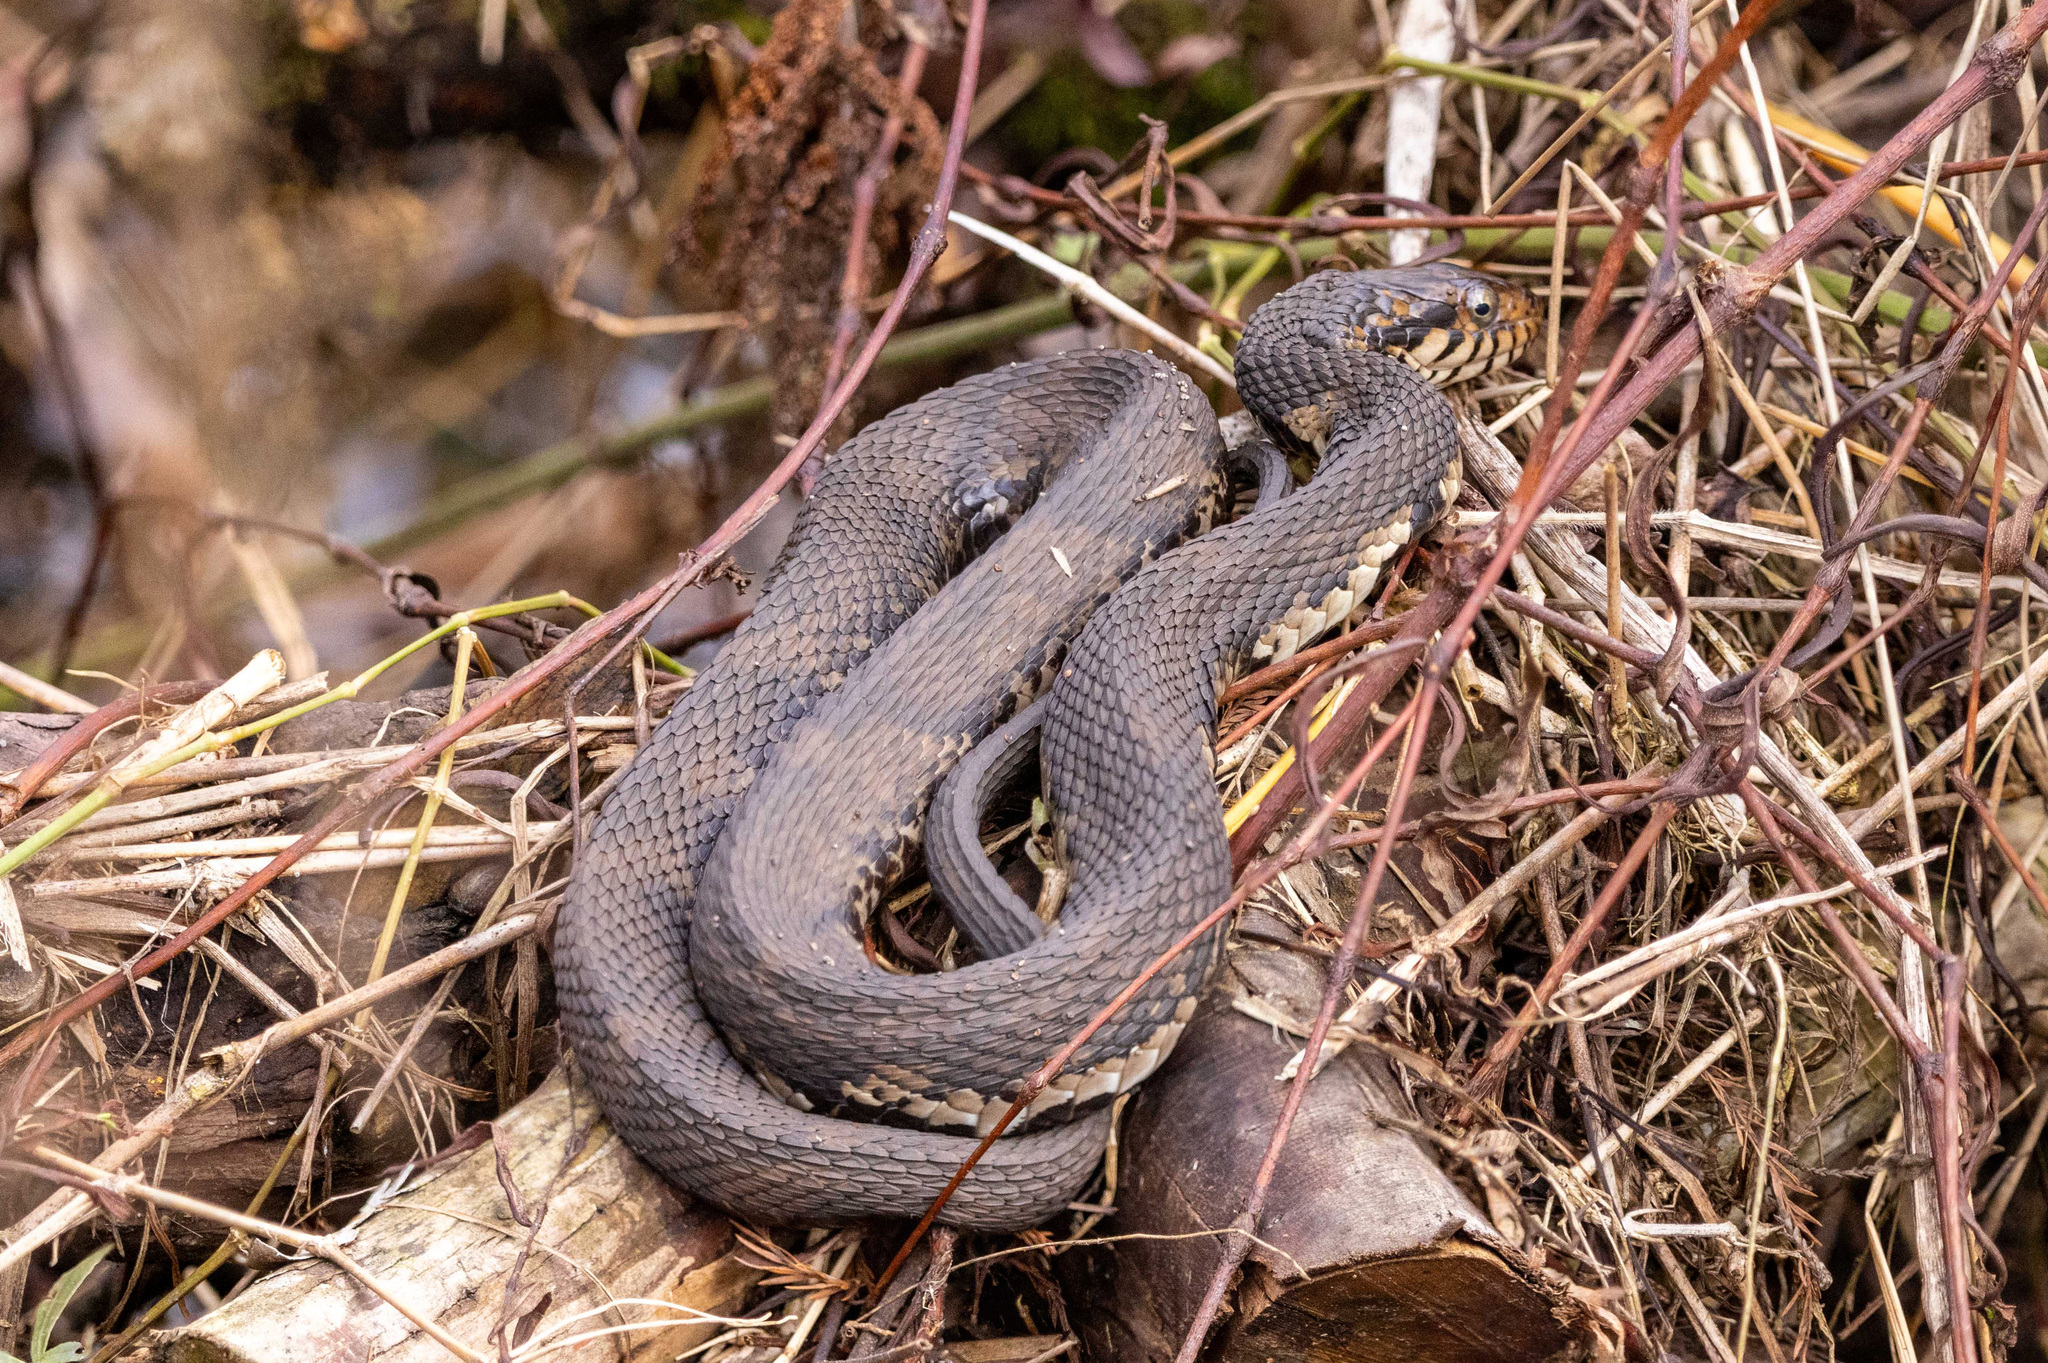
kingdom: Animalia
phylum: Chordata
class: Squamata
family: Colubridae
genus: Nerodia
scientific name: Nerodia fasciata
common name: Southern water snake
